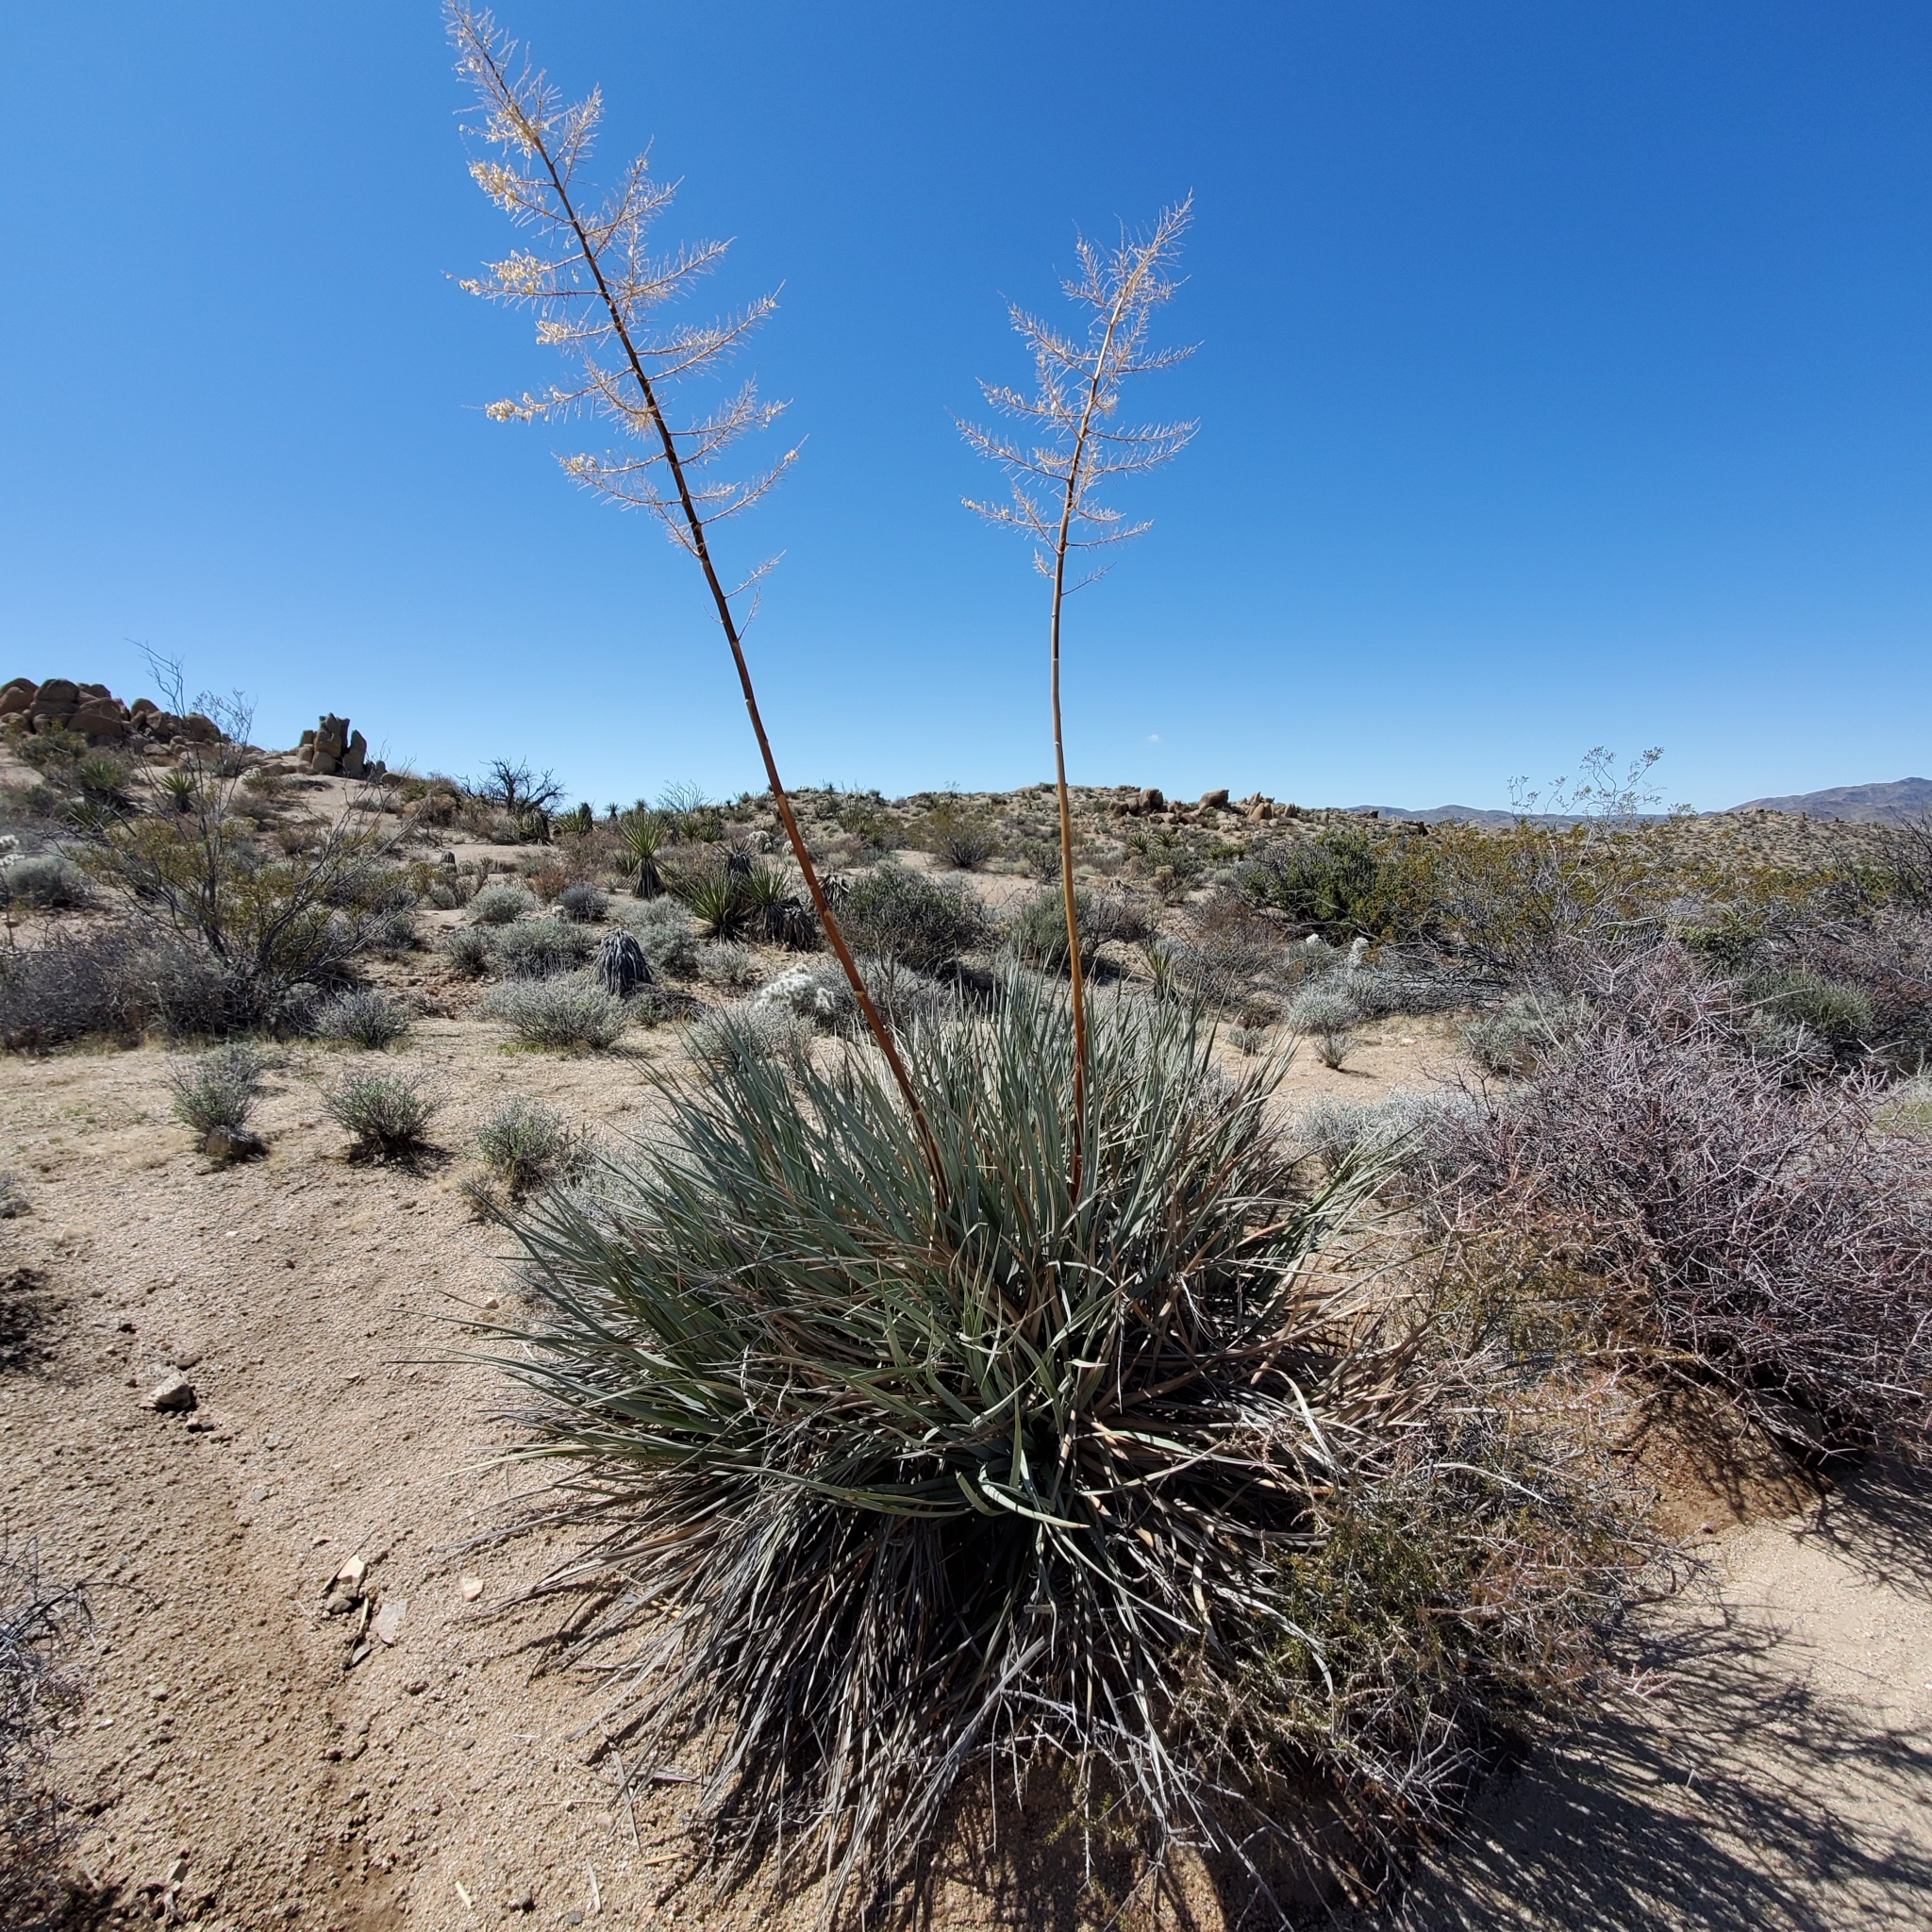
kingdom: Plantae
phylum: Tracheophyta
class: Liliopsida
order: Asparagales
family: Asparagaceae
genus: Nolina
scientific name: Nolina bigelovii
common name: Bigelow bear-grass
